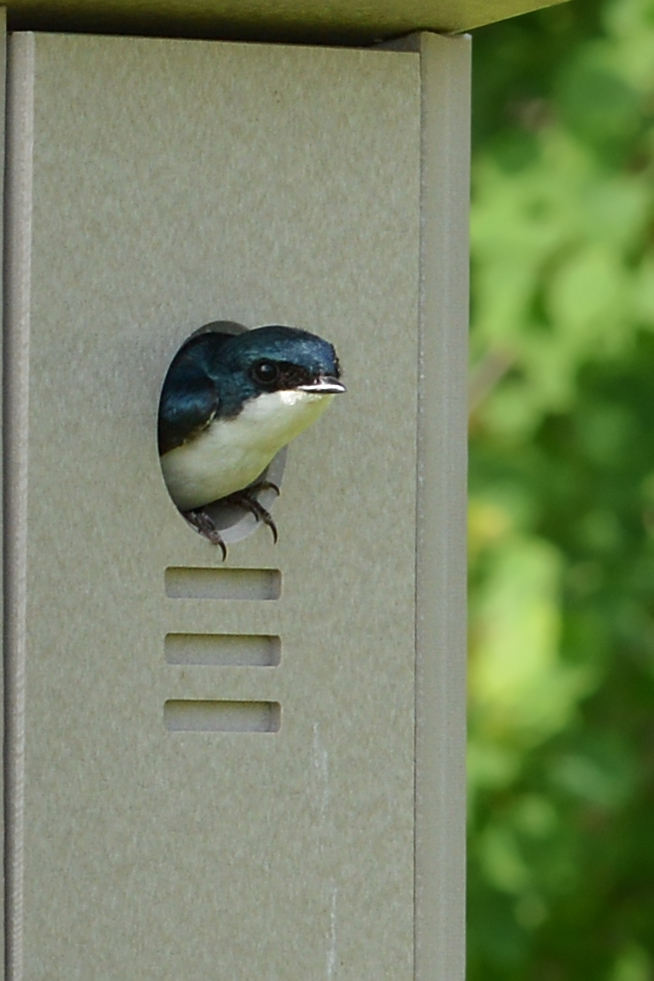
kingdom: Animalia
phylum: Chordata
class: Aves
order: Passeriformes
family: Hirundinidae
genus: Tachycineta
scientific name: Tachycineta bicolor
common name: Tree swallow
